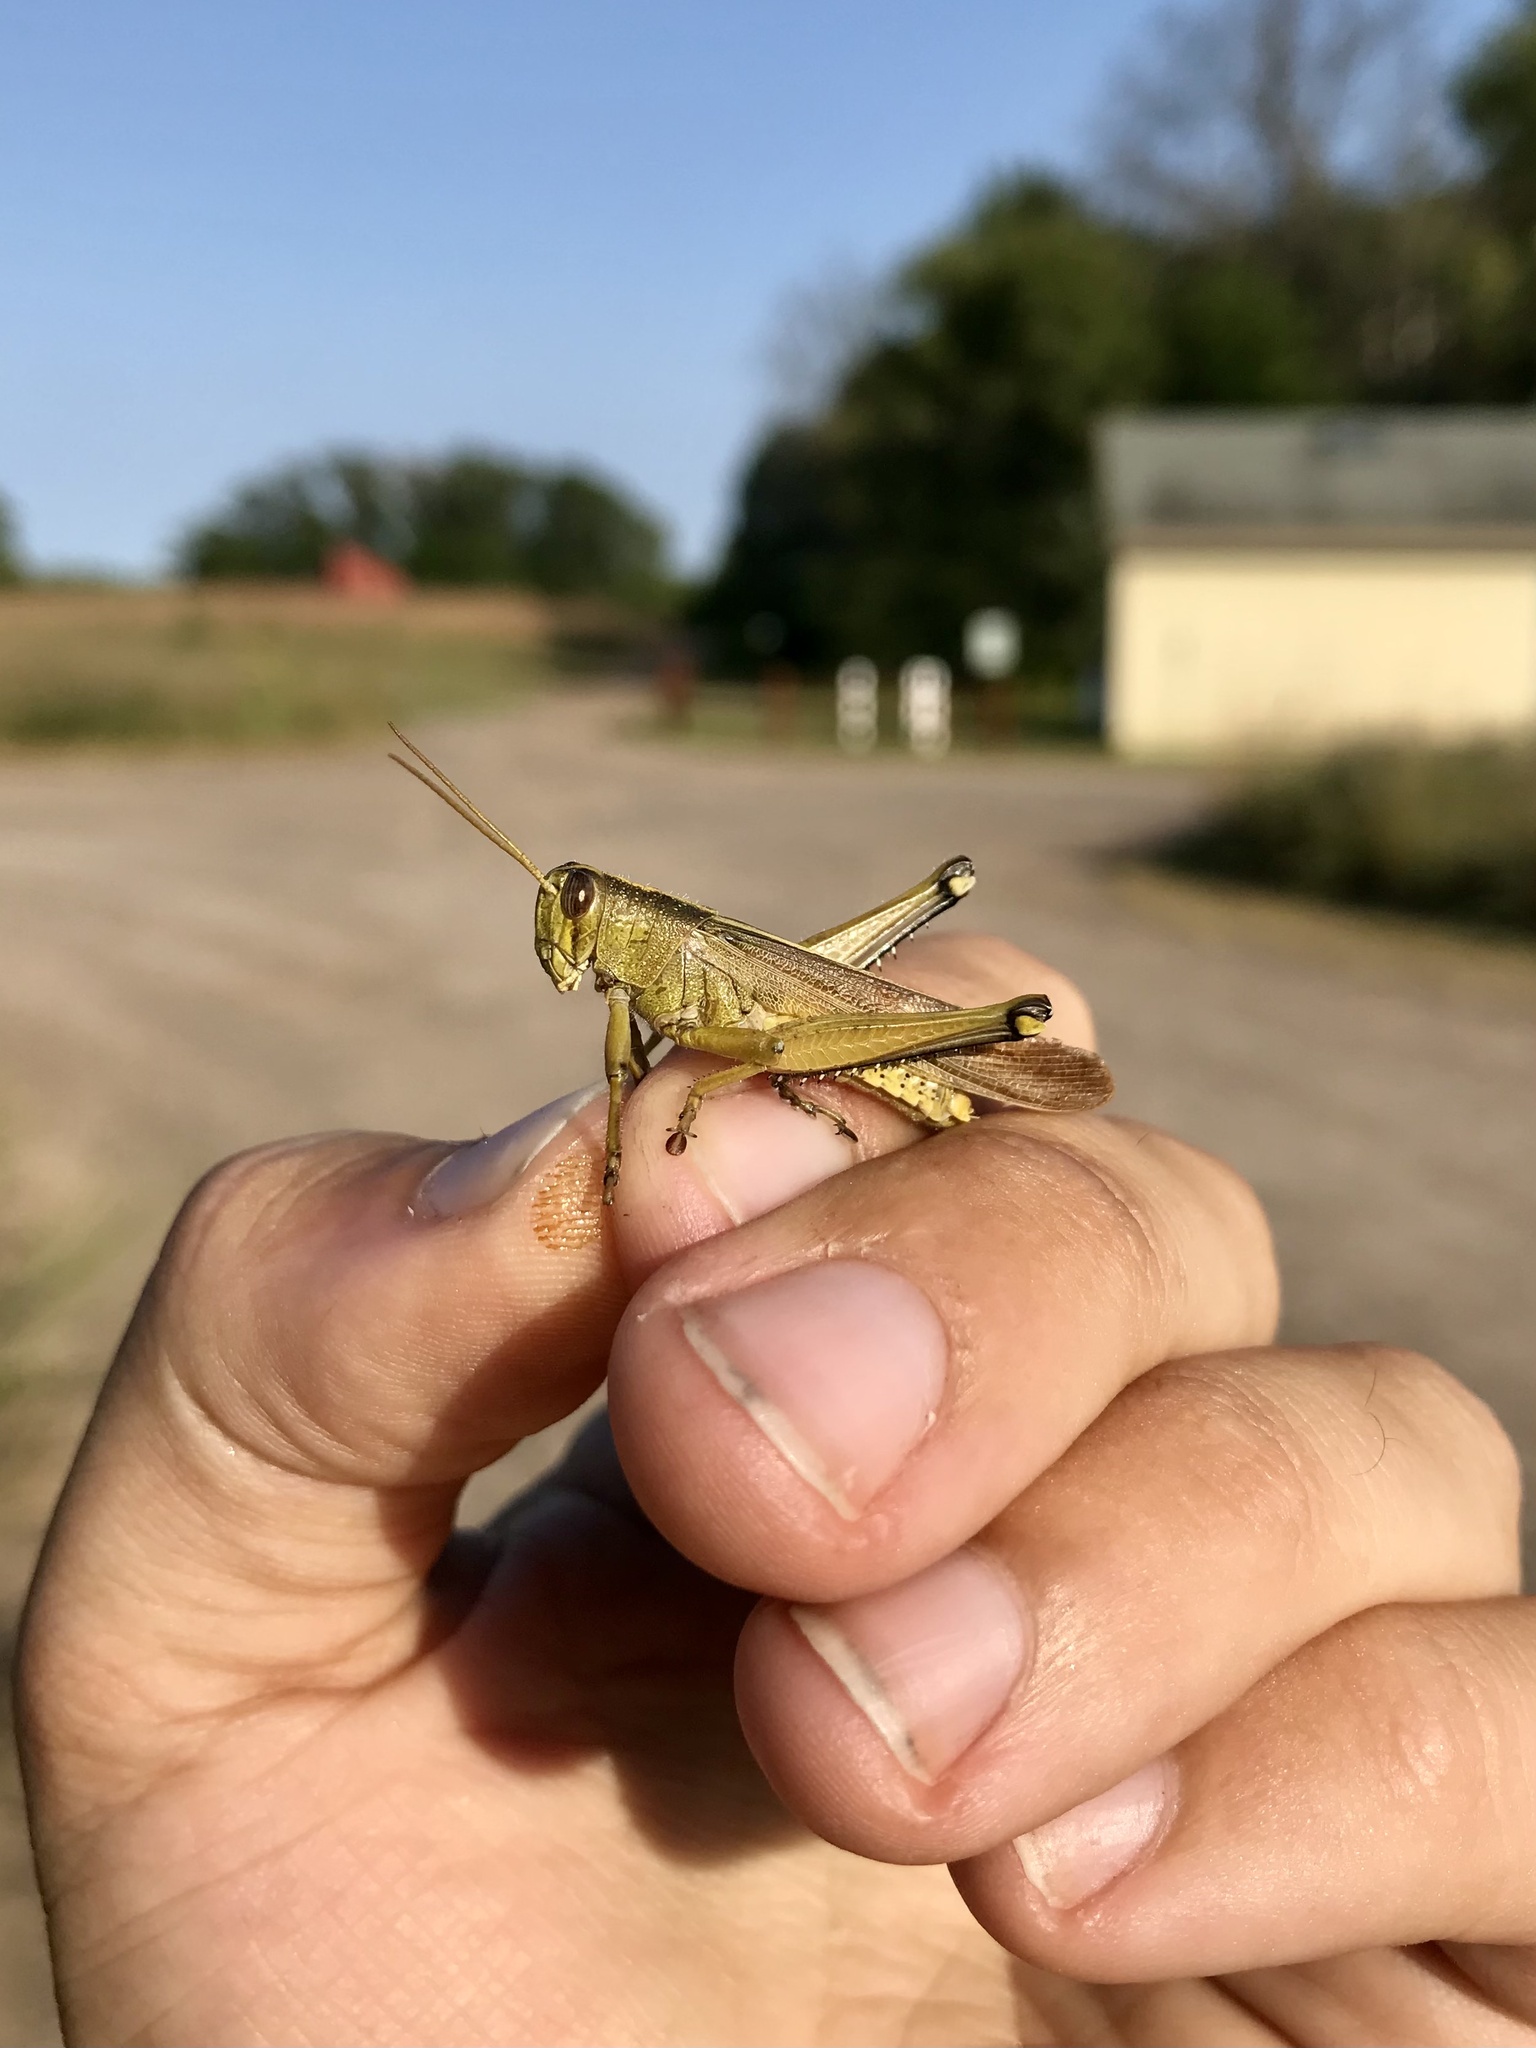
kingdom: Animalia
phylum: Arthropoda
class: Insecta
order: Orthoptera
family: Acrididae
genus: Schistocerca
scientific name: Schistocerca lineata
